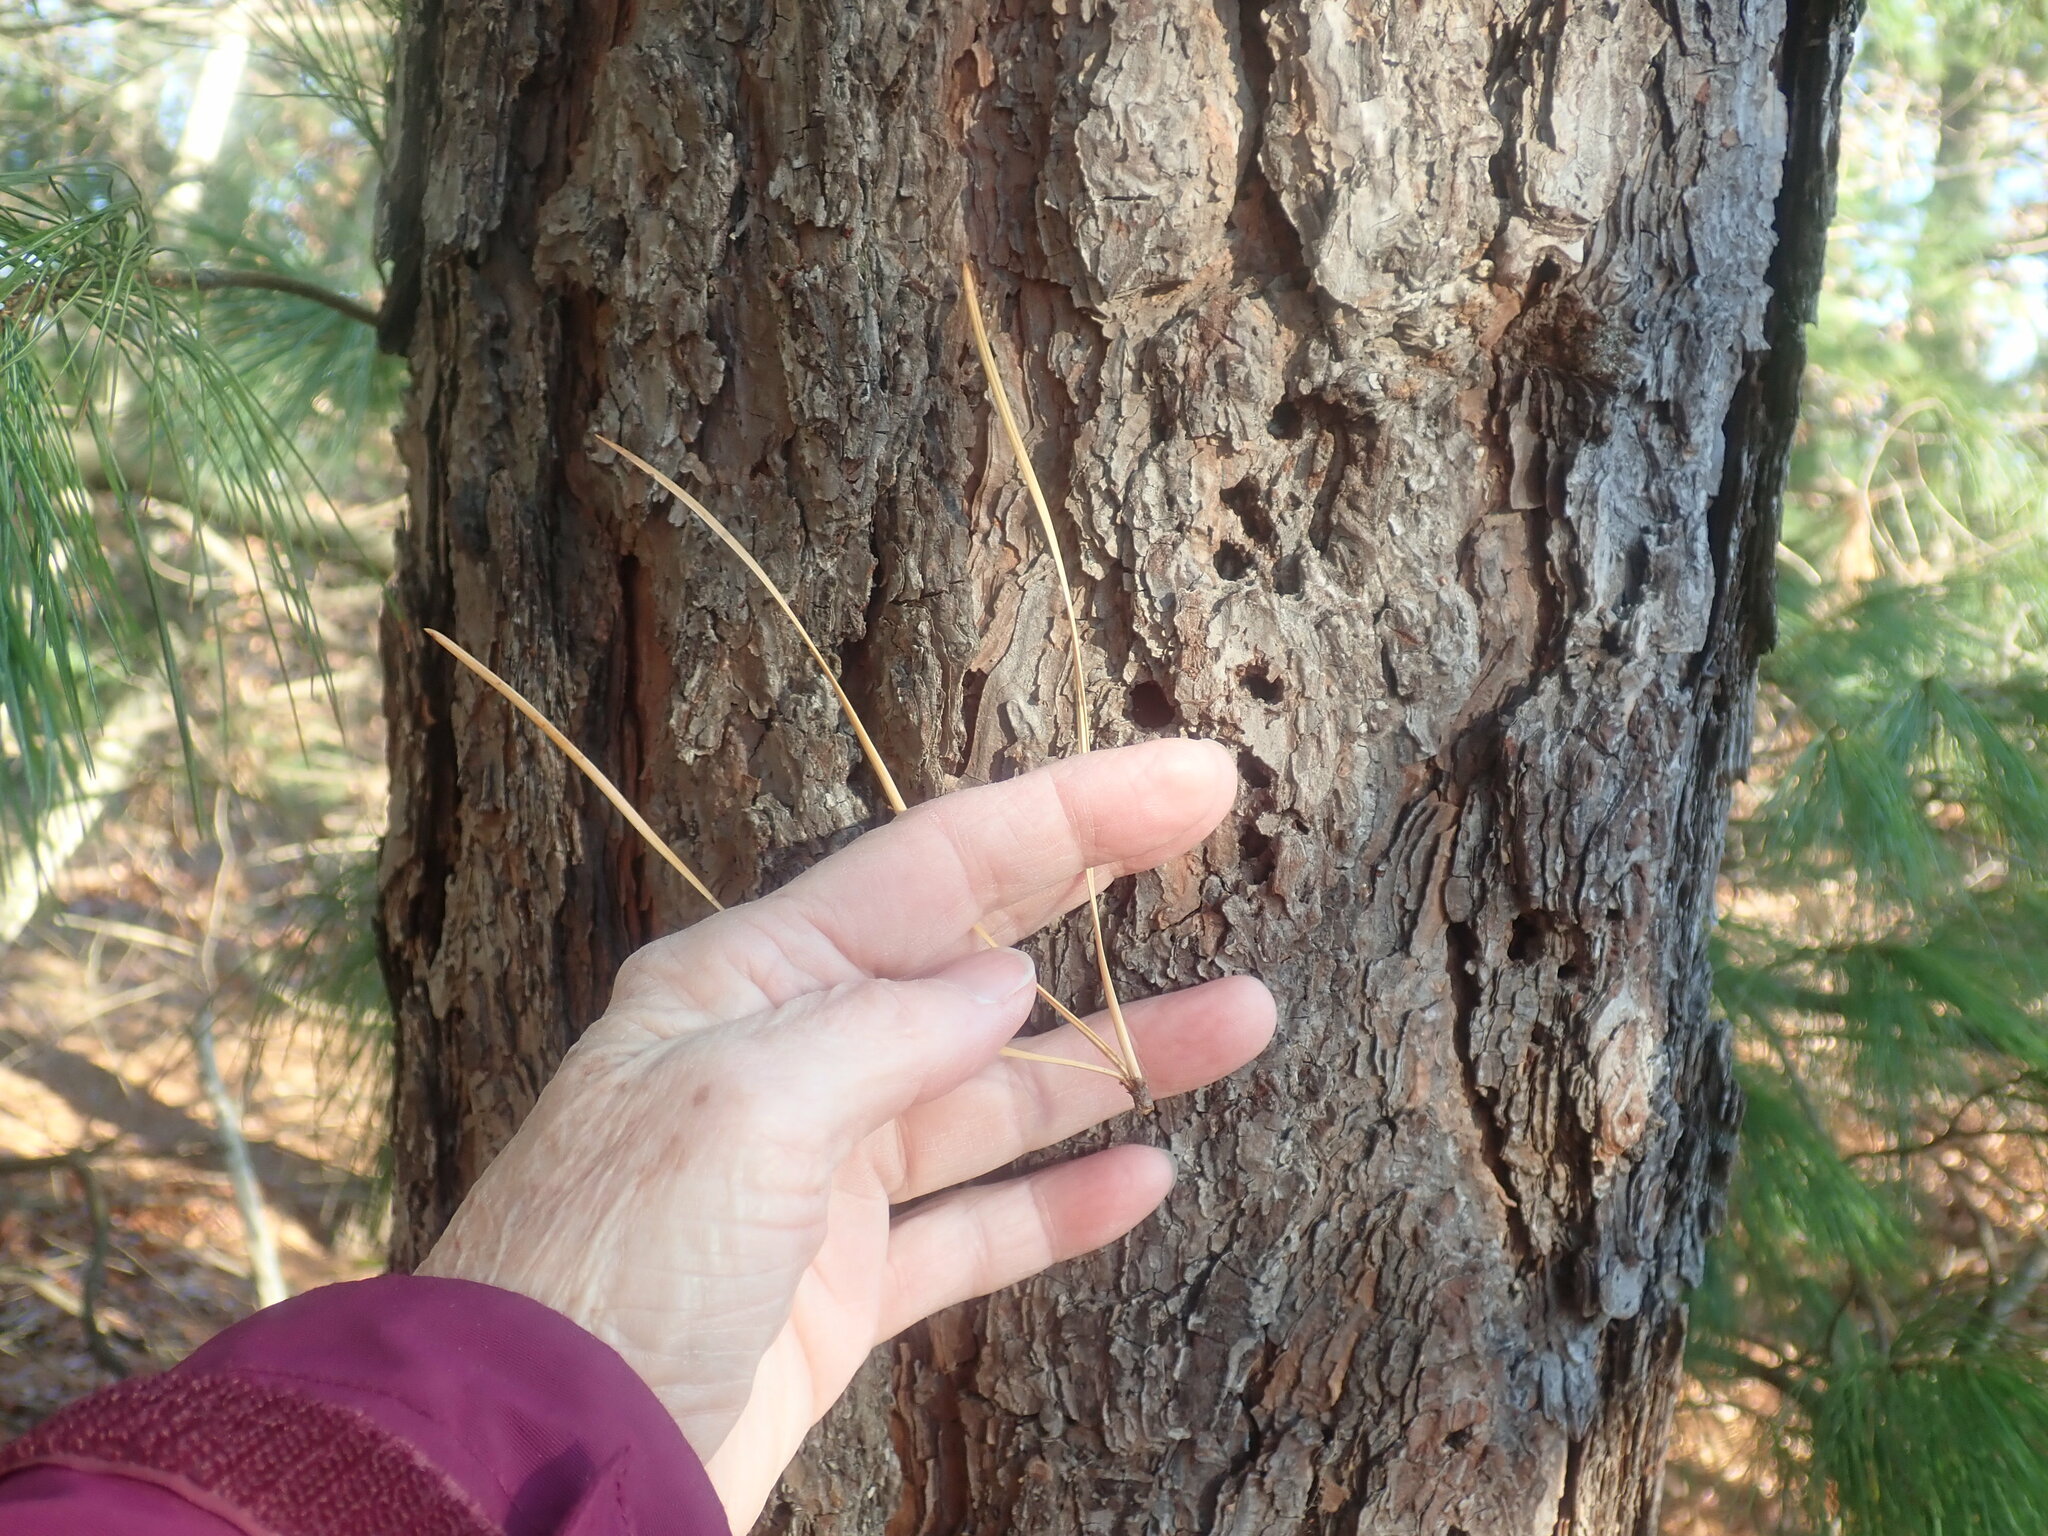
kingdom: Plantae
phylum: Tracheophyta
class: Pinopsida
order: Pinales
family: Pinaceae
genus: Pinus
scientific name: Pinus rigida
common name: Pitch pine
